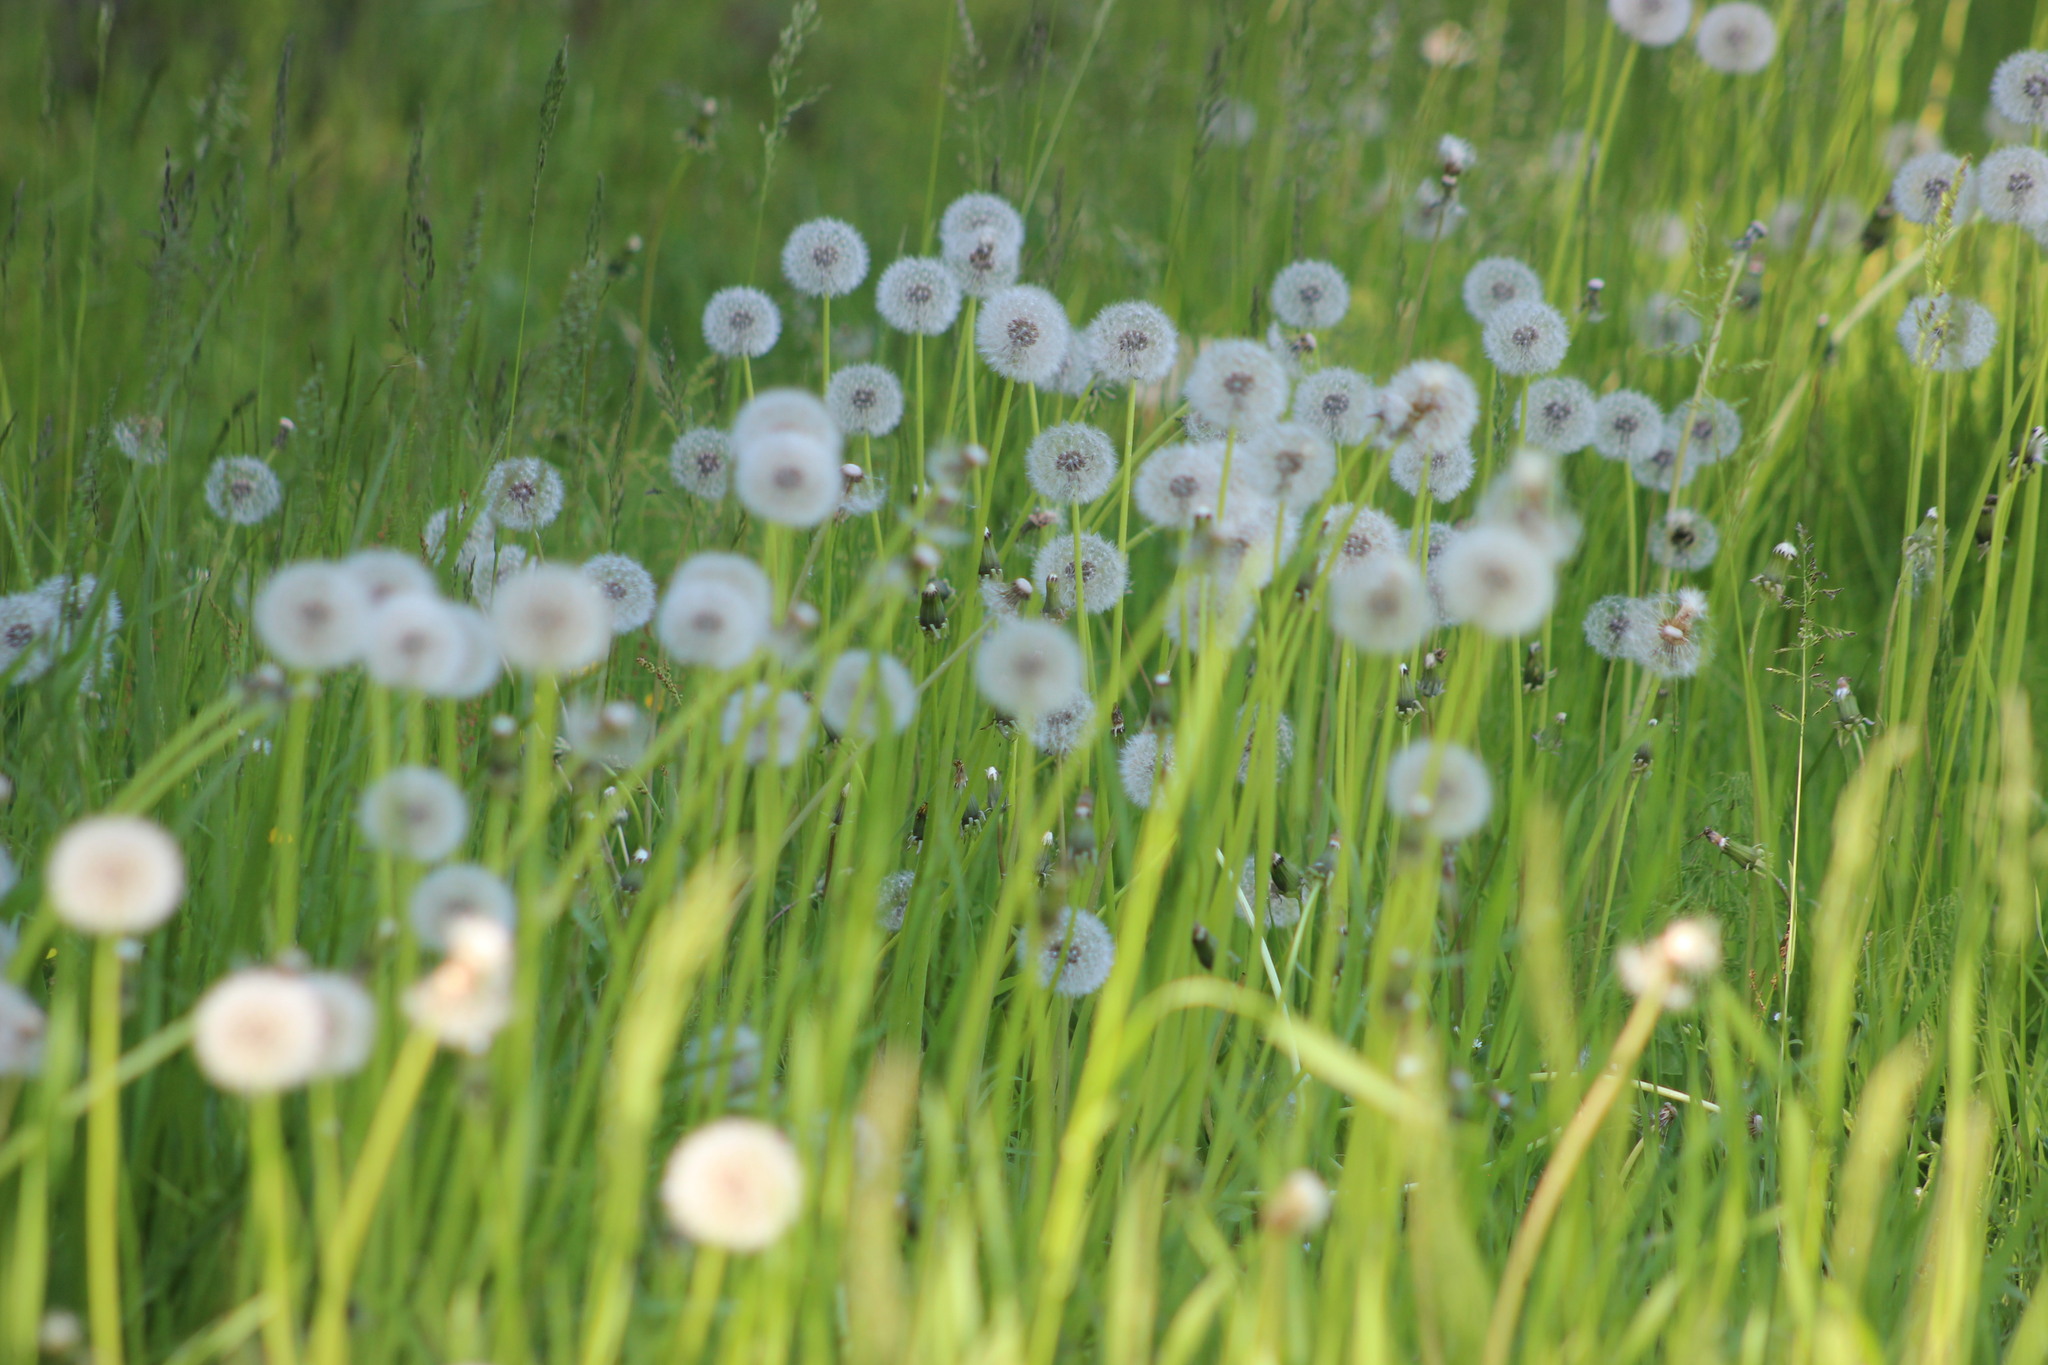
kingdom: Plantae
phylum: Tracheophyta
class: Magnoliopsida
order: Asterales
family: Asteraceae
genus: Taraxacum
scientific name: Taraxacum
